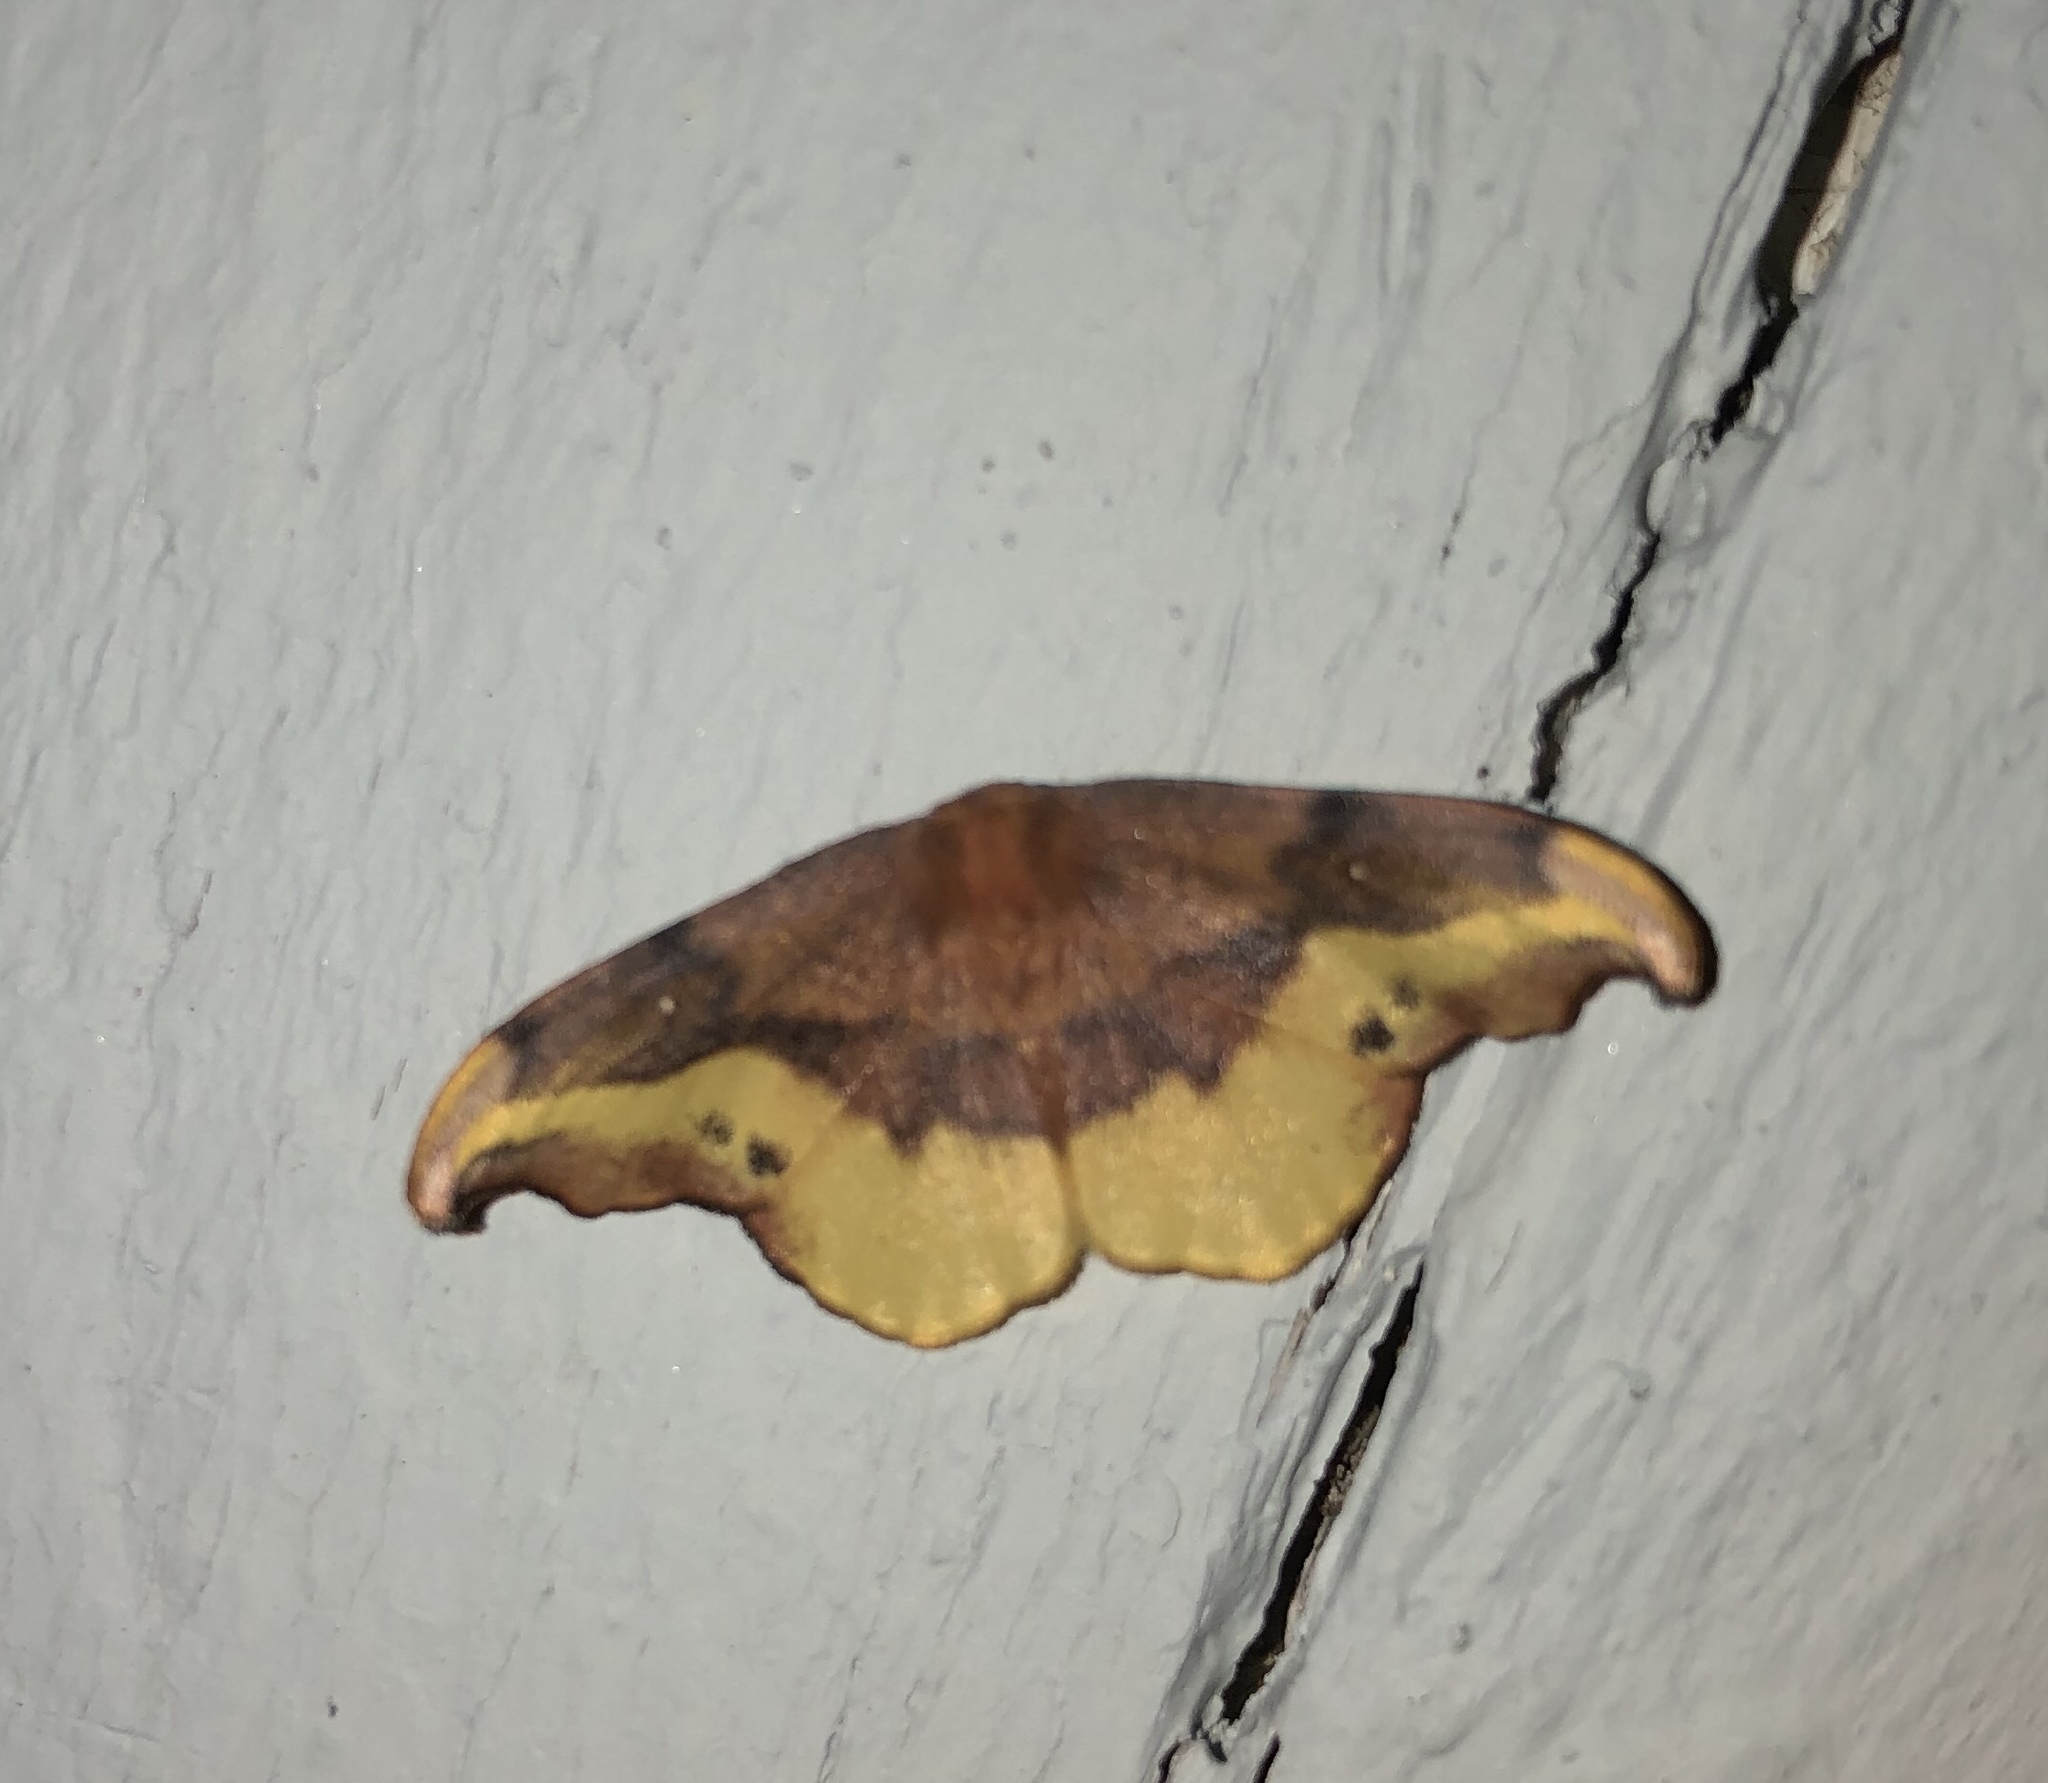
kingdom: Animalia
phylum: Arthropoda
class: Insecta
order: Lepidoptera
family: Drepanidae
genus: Oreta
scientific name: Oreta rosea
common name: Rose hooktip
